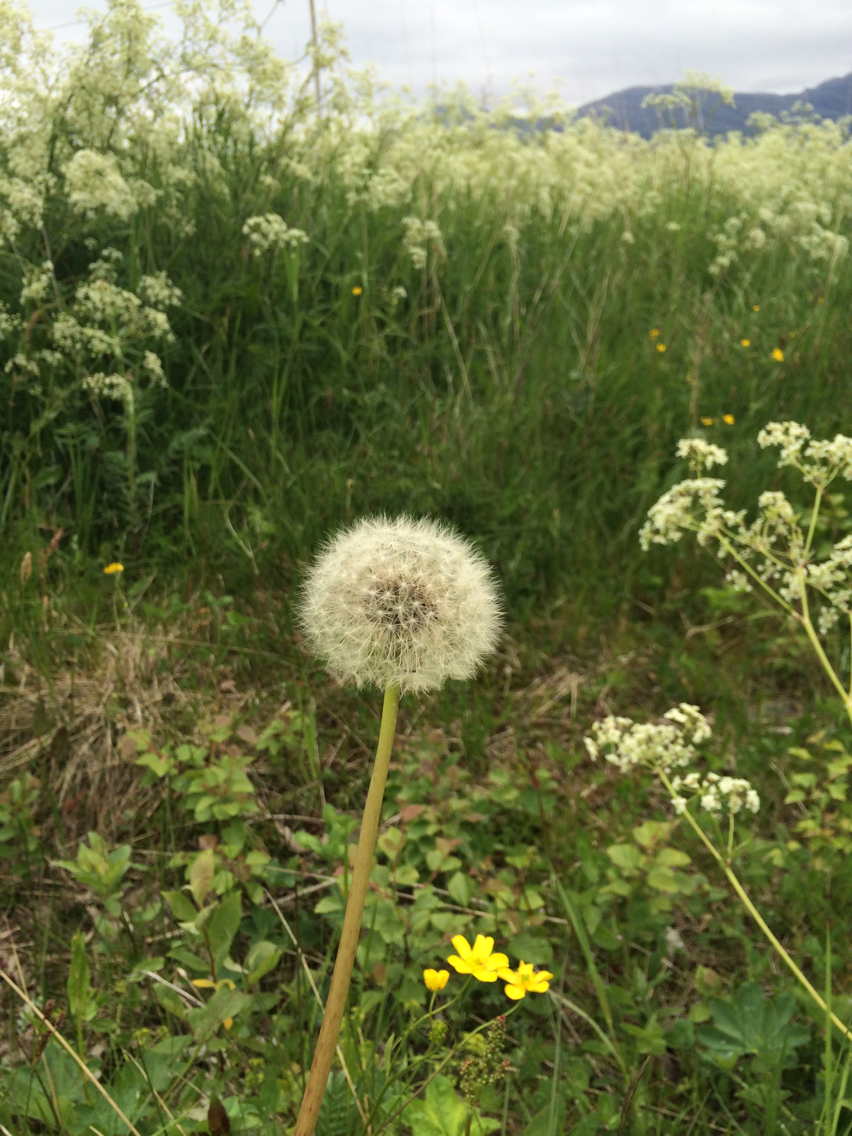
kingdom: Plantae
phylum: Tracheophyta
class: Magnoliopsida
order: Asterales
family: Asteraceae
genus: Taraxacum
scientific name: Taraxacum officinale
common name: Common dandelion
